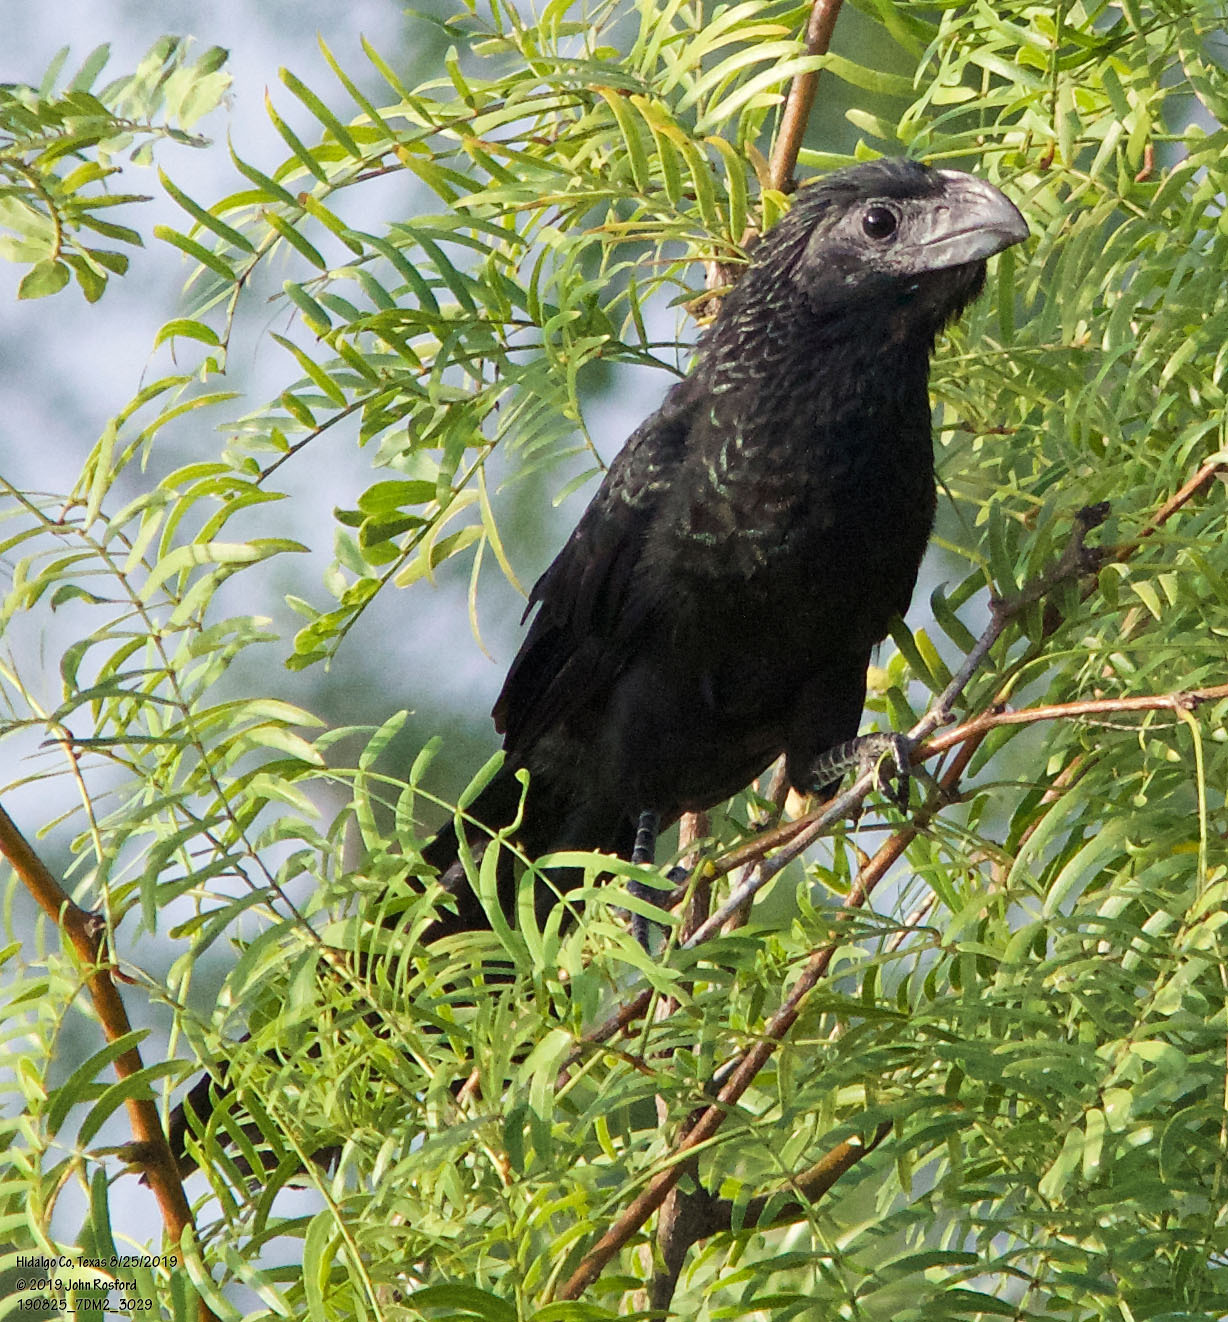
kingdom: Animalia
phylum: Chordata
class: Aves
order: Cuculiformes
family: Cuculidae
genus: Crotophaga
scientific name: Crotophaga sulcirostris
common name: Groove-billed ani
